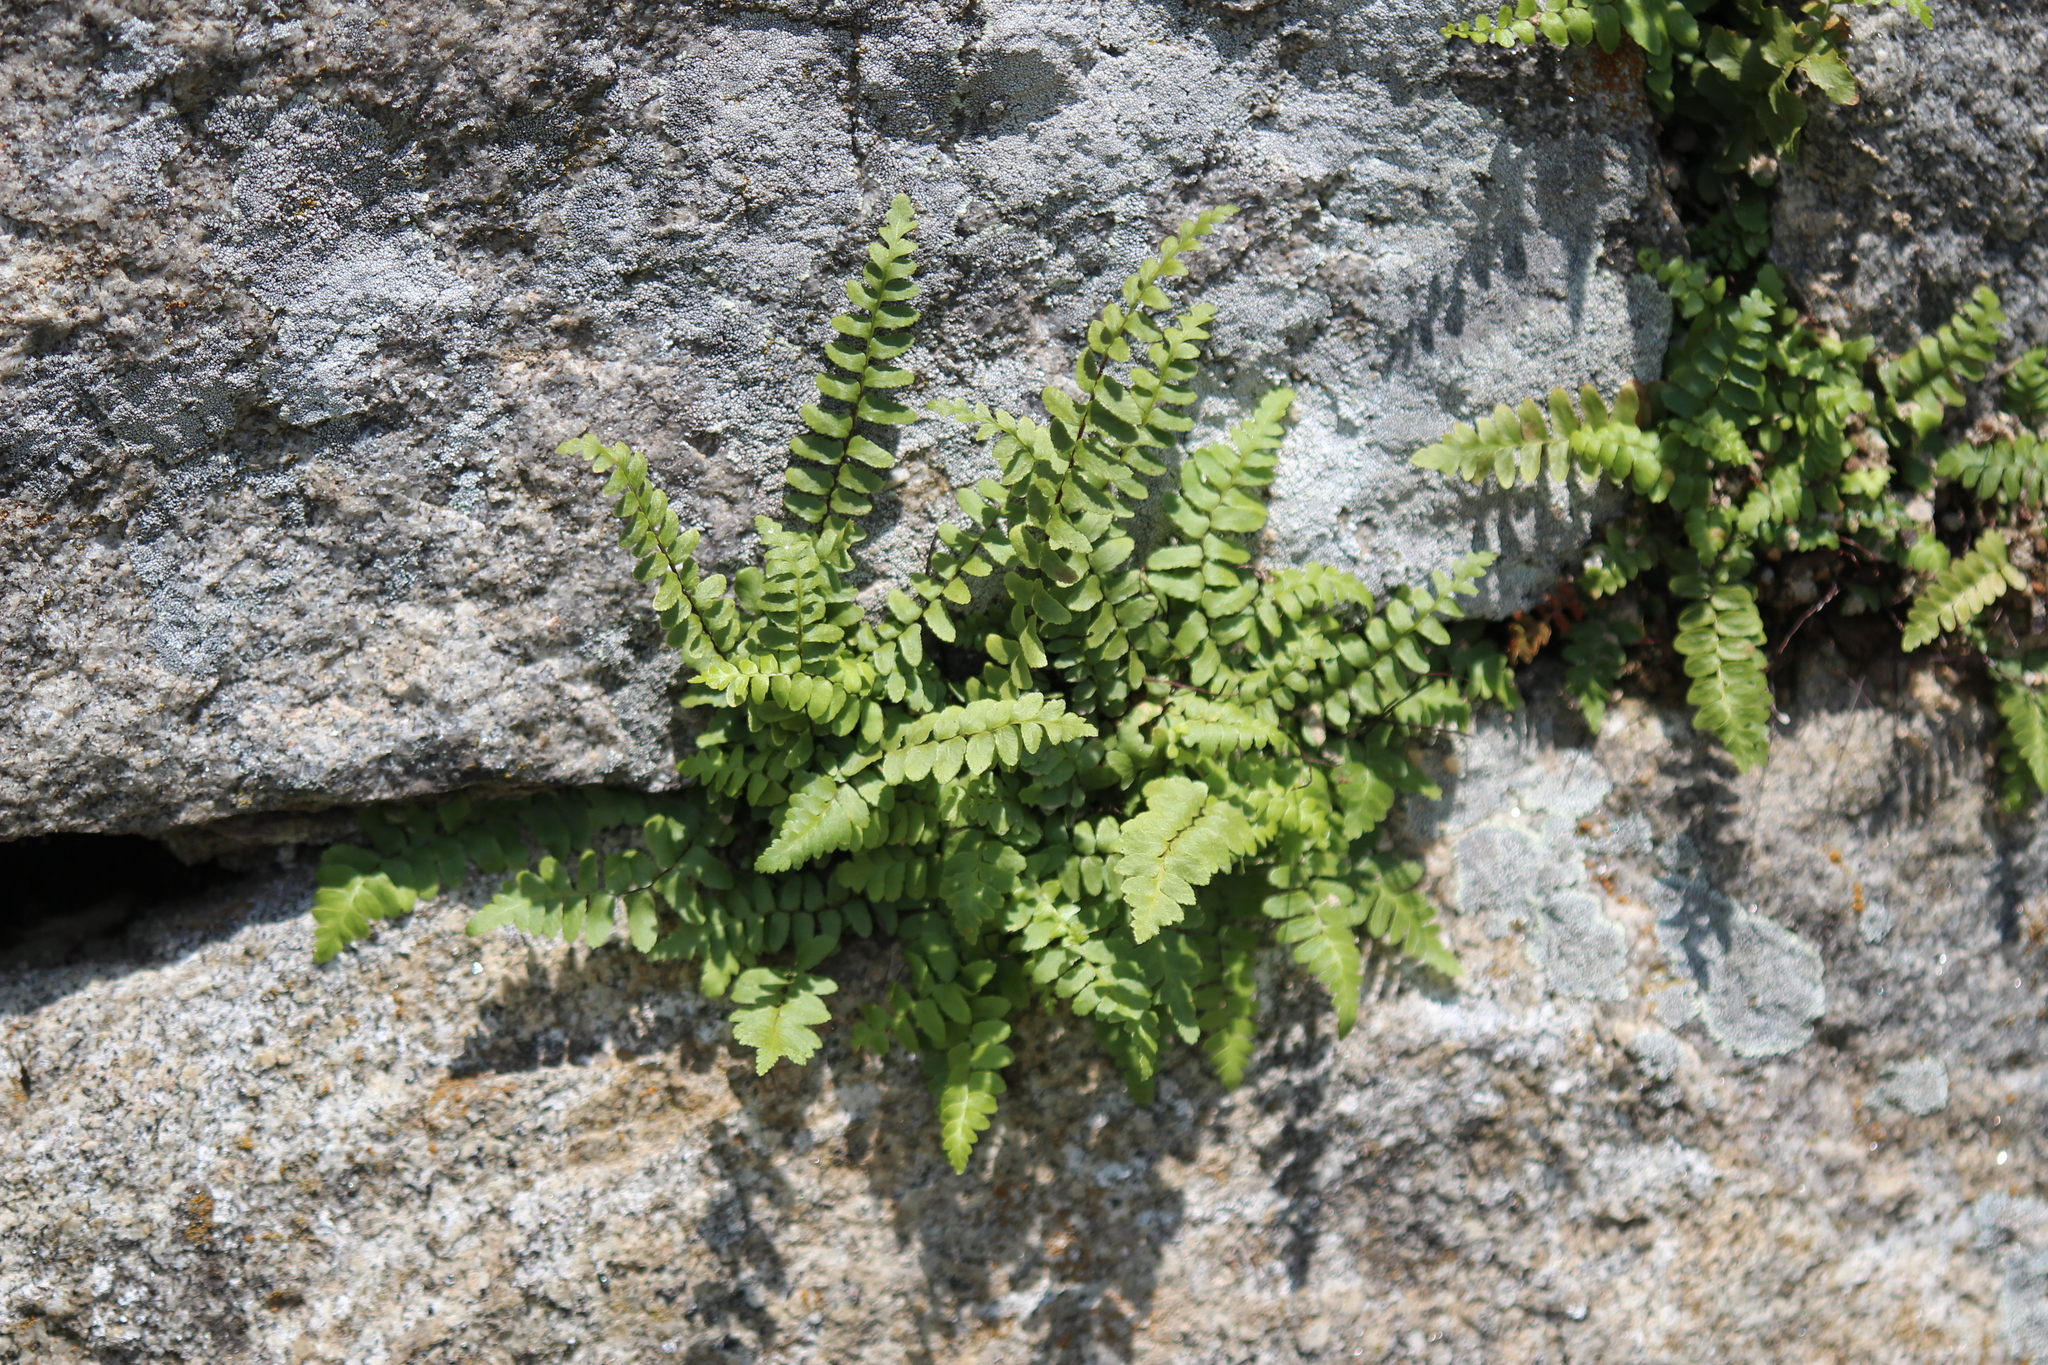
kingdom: Plantae
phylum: Tracheophyta
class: Polypodiopsida
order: Polypodiales
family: Aspleniaceae
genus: Asplenium
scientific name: Asplenium platyneuron
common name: Ebony spleenwort
